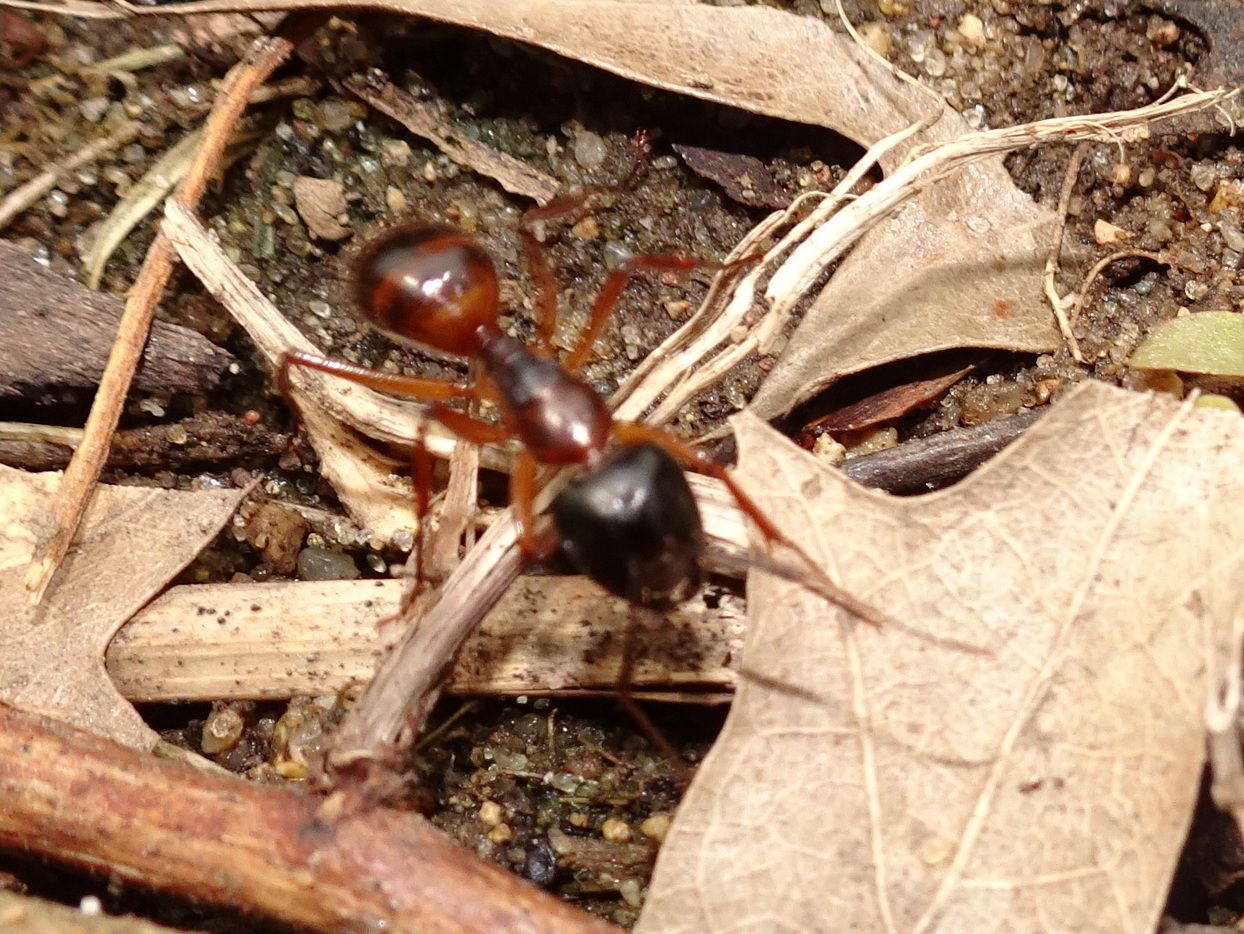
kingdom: Animalia
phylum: Arthropoda
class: Insecta
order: Hymenoptera
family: Formicidae
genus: Camponotus
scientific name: Camponotus americanus
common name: American carpenter ant
